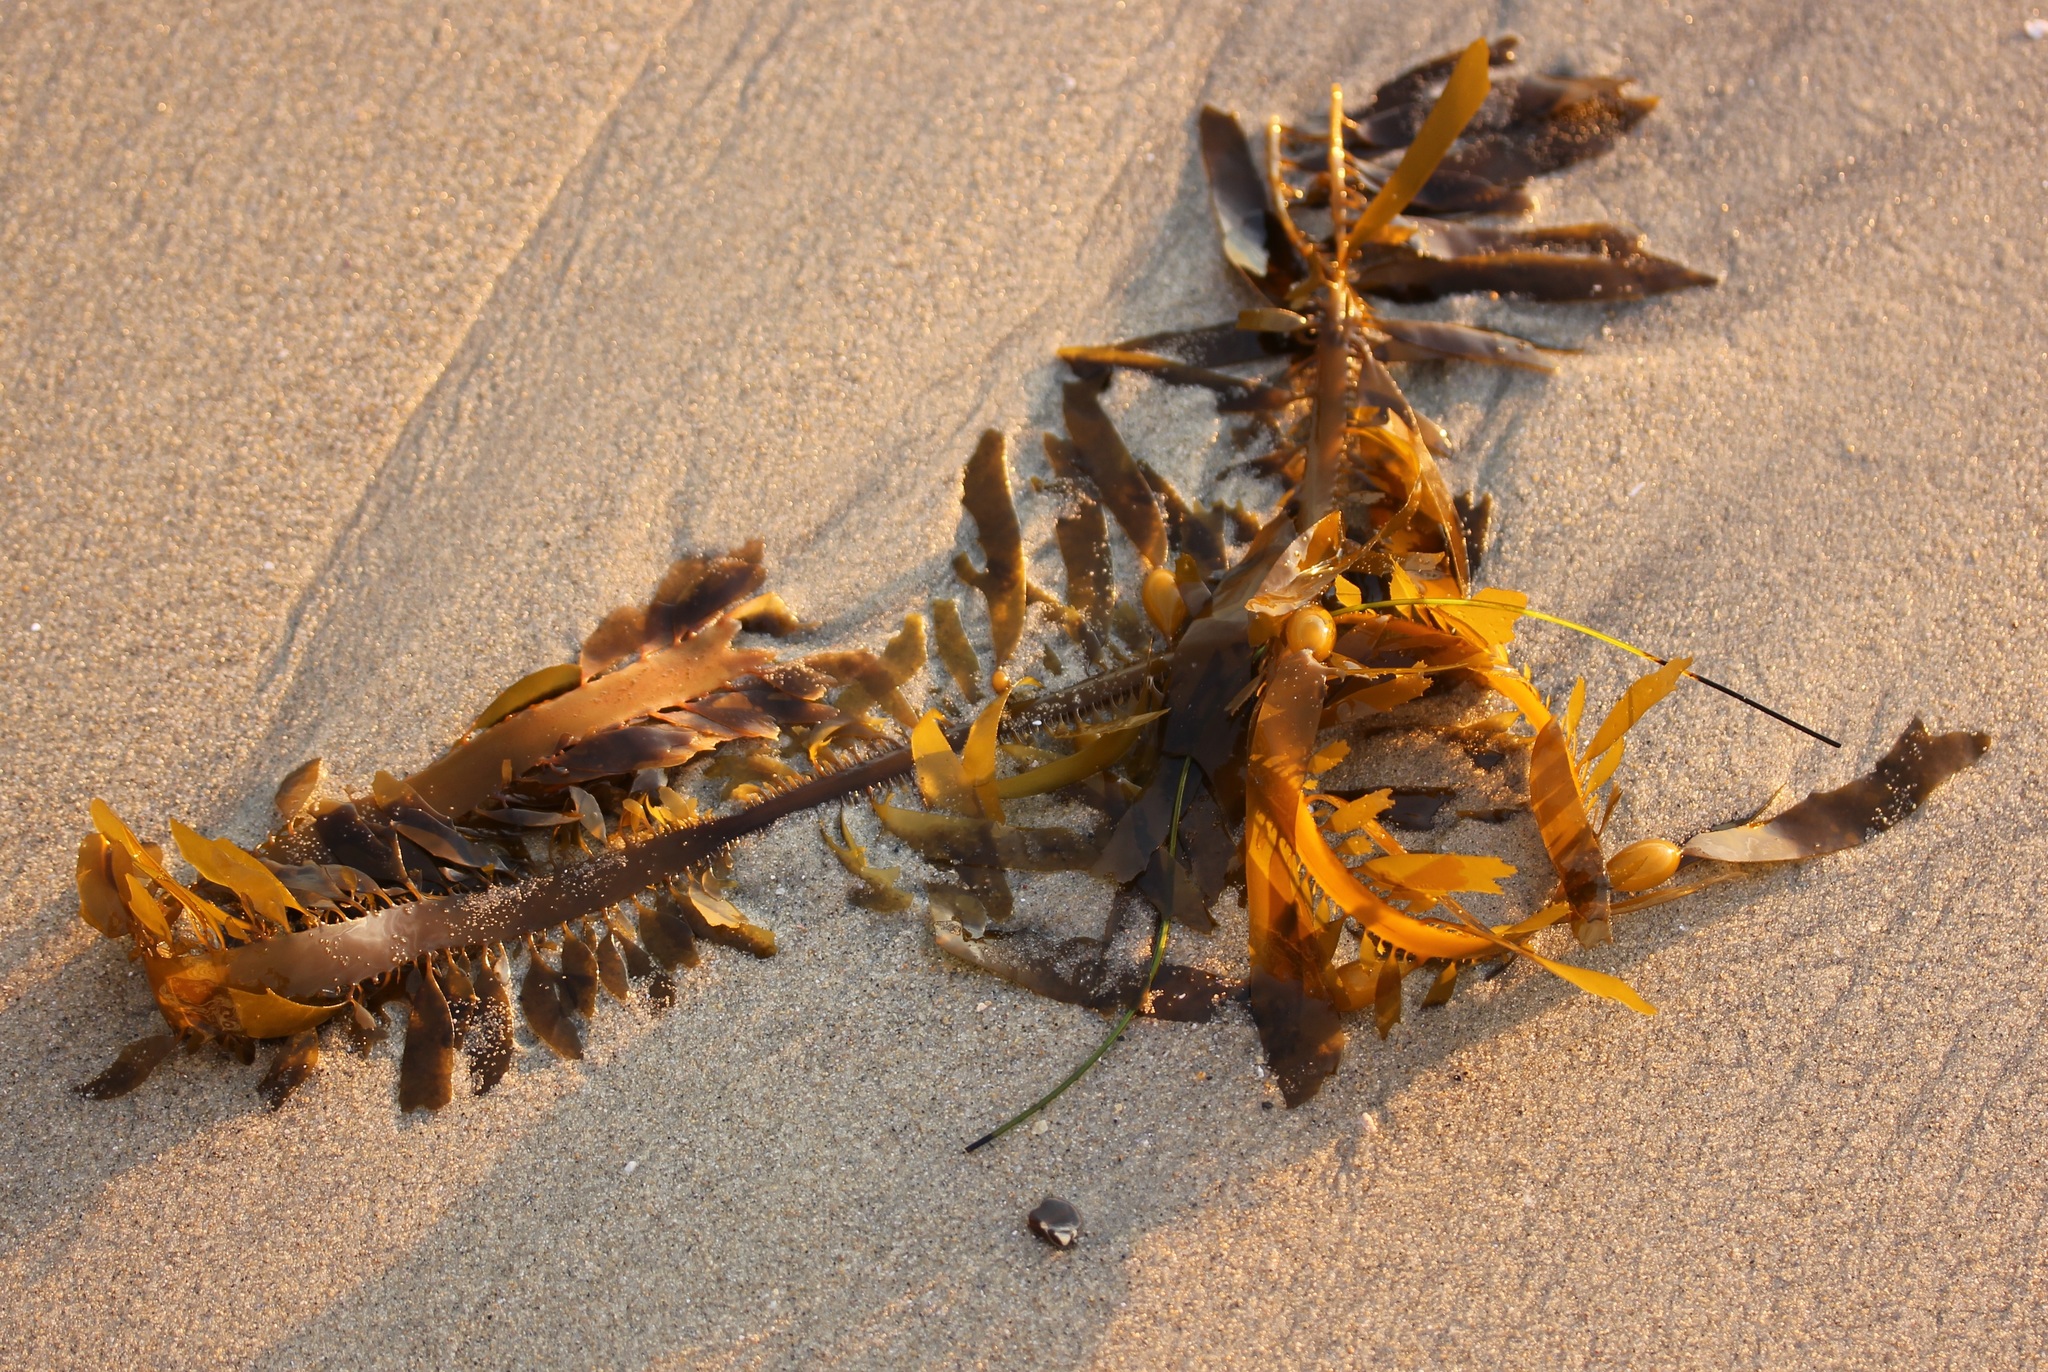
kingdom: Chromista
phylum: Ochrophyta
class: Phaeophyceae
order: Laminariales
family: Lessoniaceae
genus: Egregia
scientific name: Egregia menziesii
